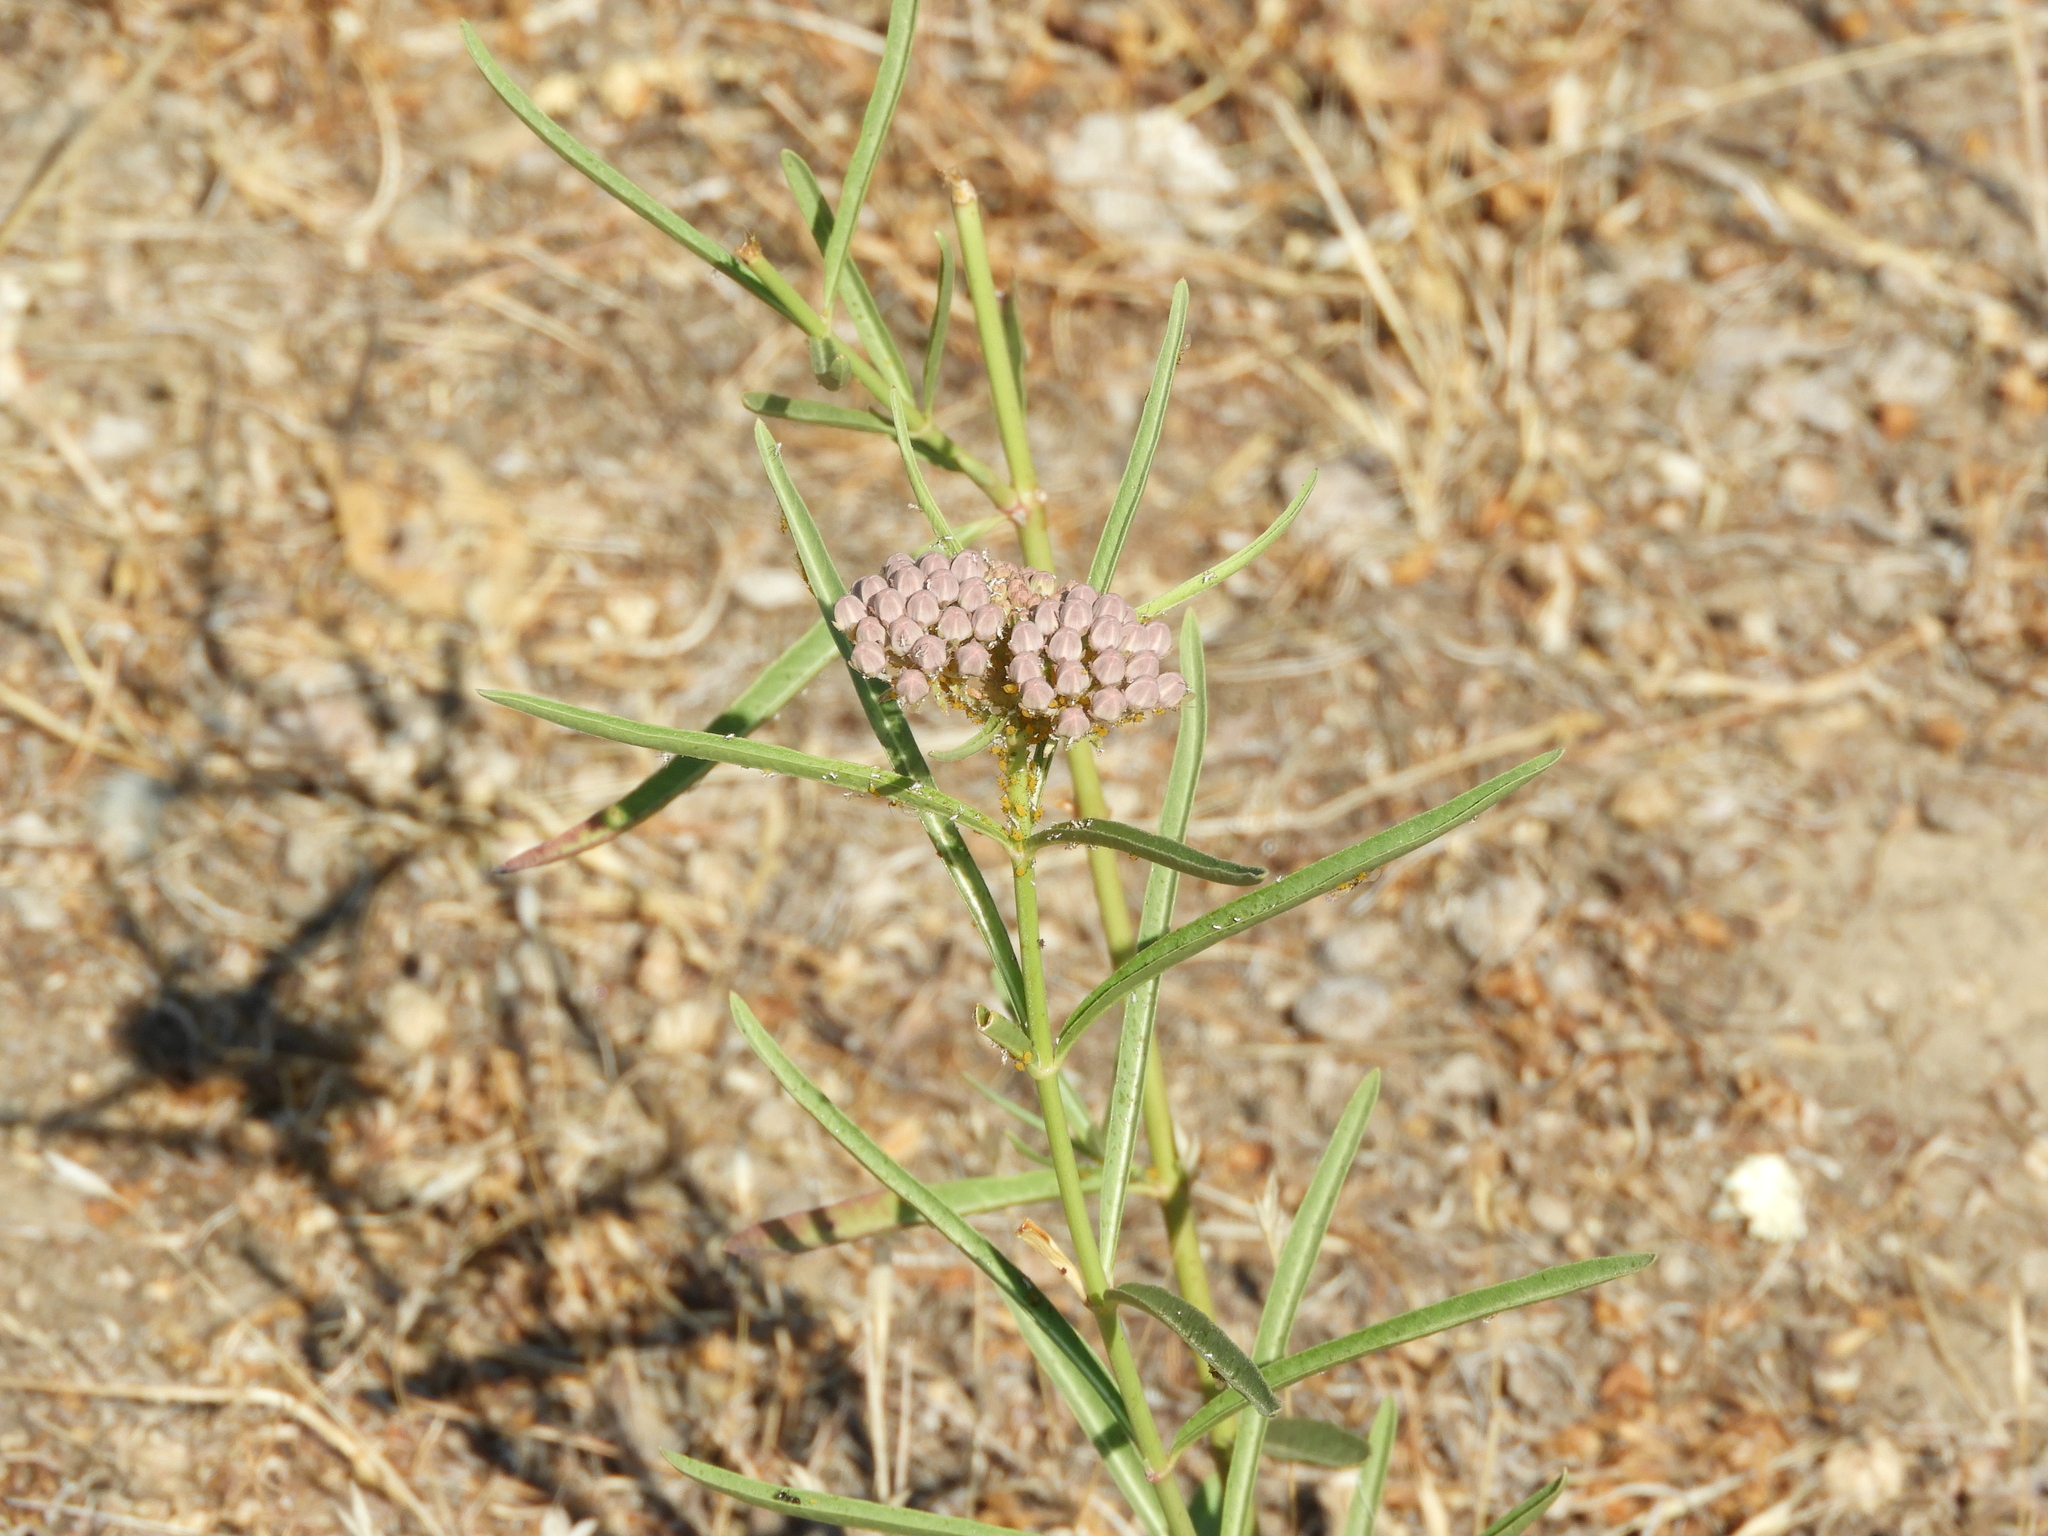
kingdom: Plantae
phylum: Tracheophyta
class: Magnoliopsida
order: Gentianales
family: Apocynaceae
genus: Asclepias
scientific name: Asclepias fascicularis
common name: Mexican milkweed
